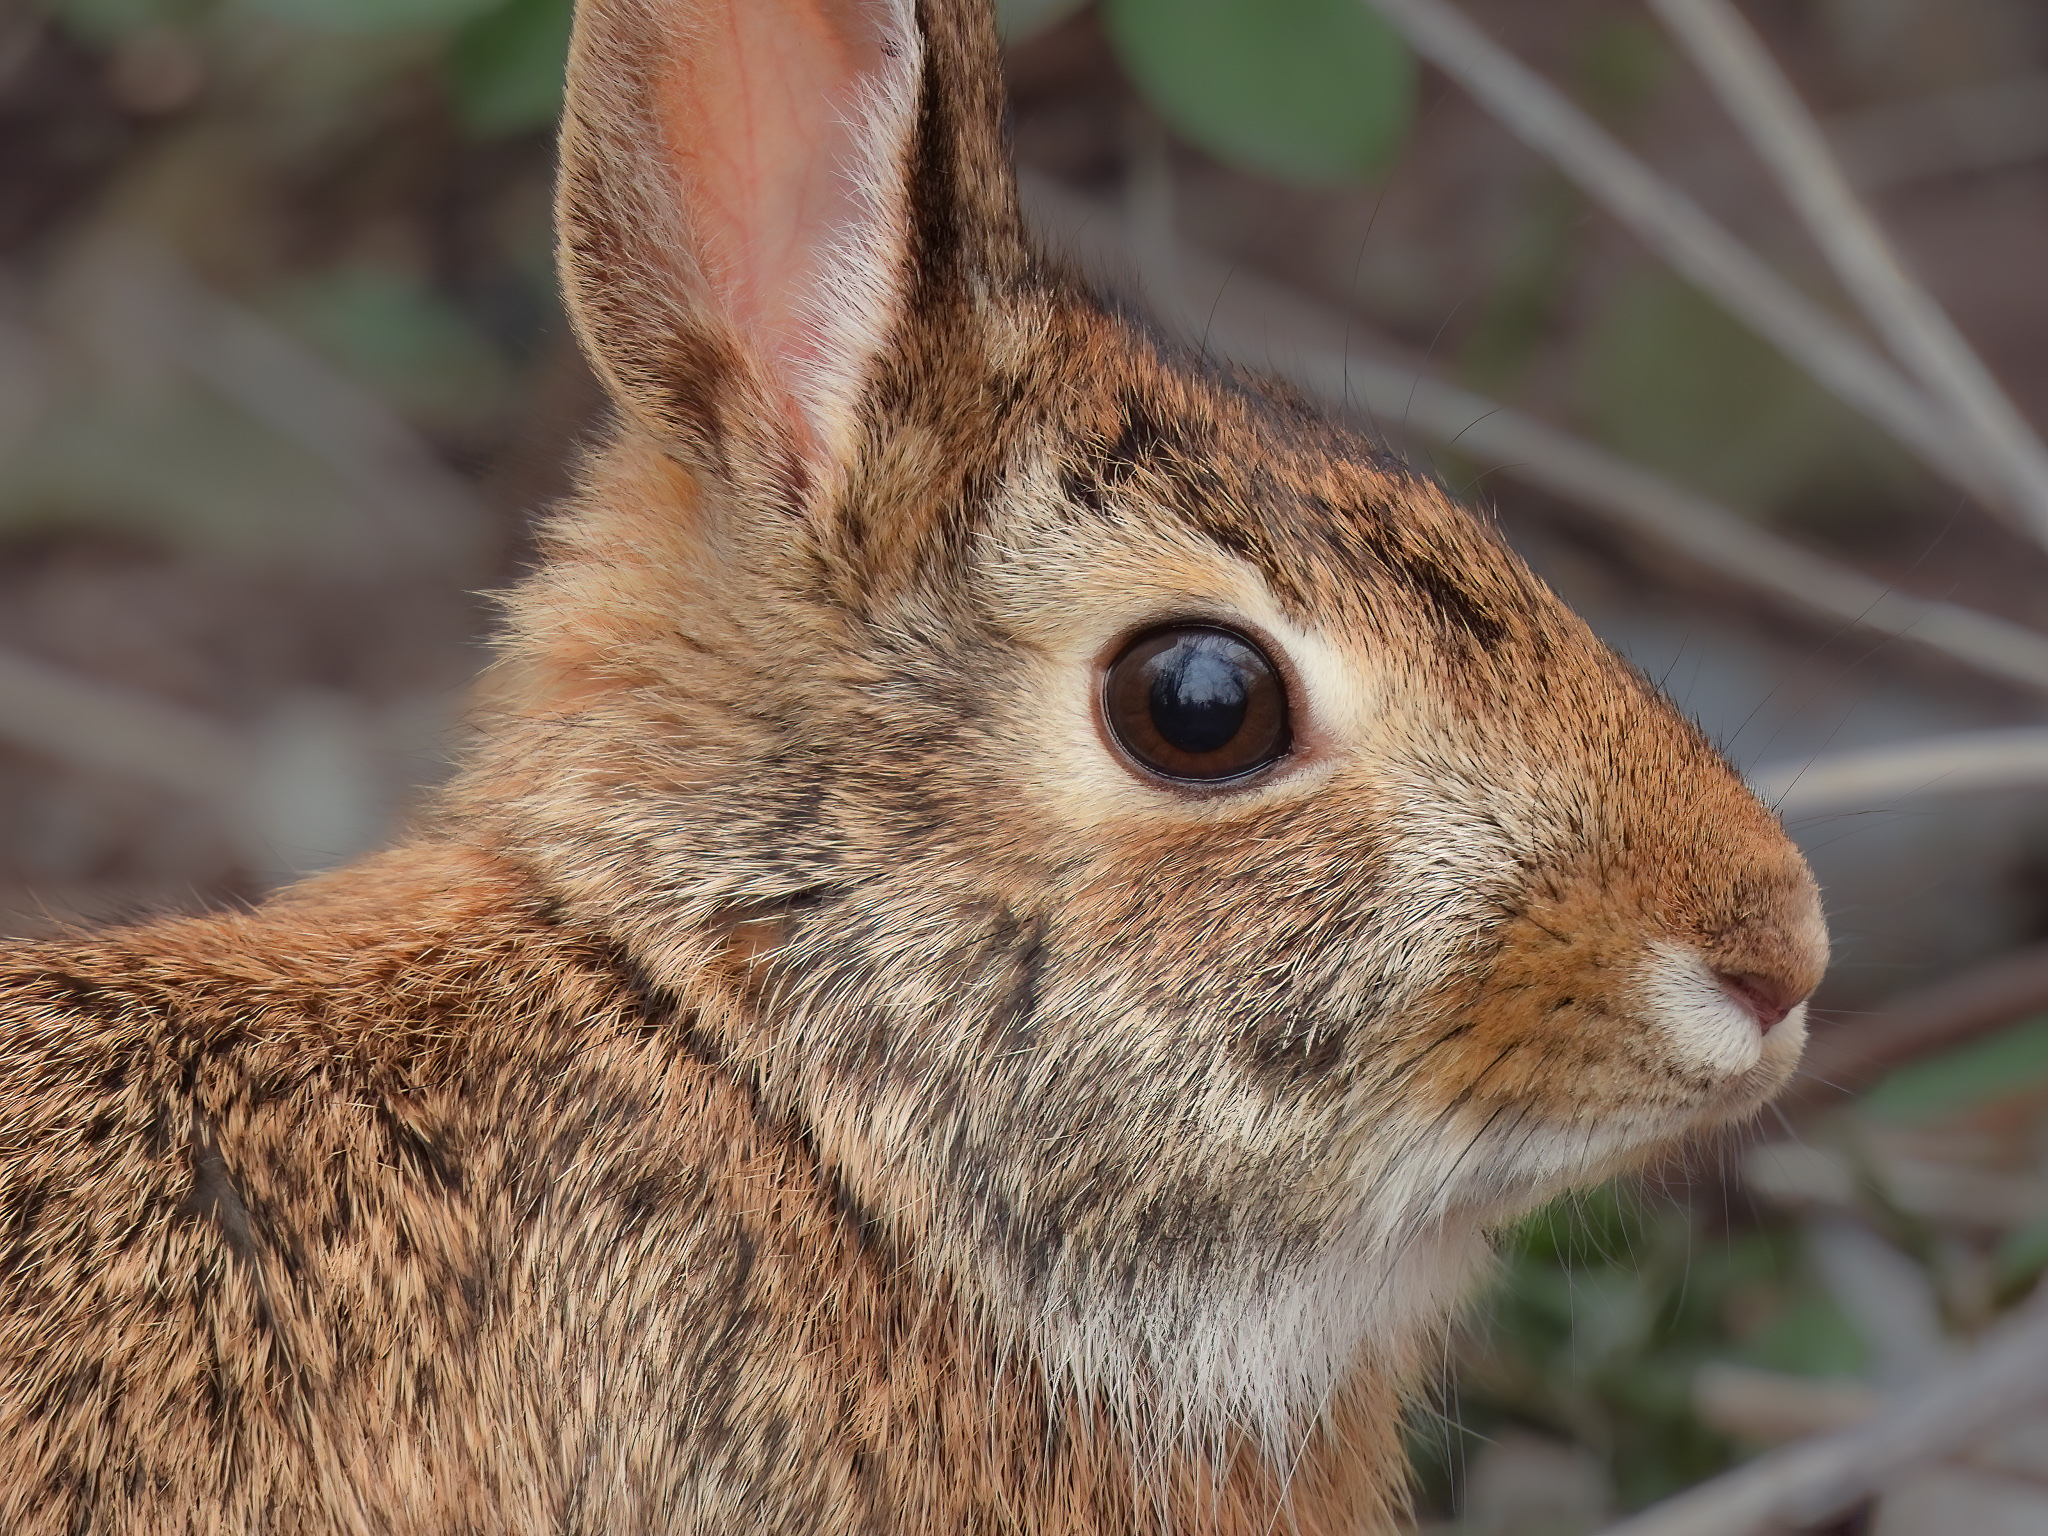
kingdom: Animalia
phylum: Chordata
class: Mammalia
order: Lagomorpha
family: Leporidae
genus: Sylvilagus
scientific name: Sylvilagus floridanus
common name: Eastern cottontail
